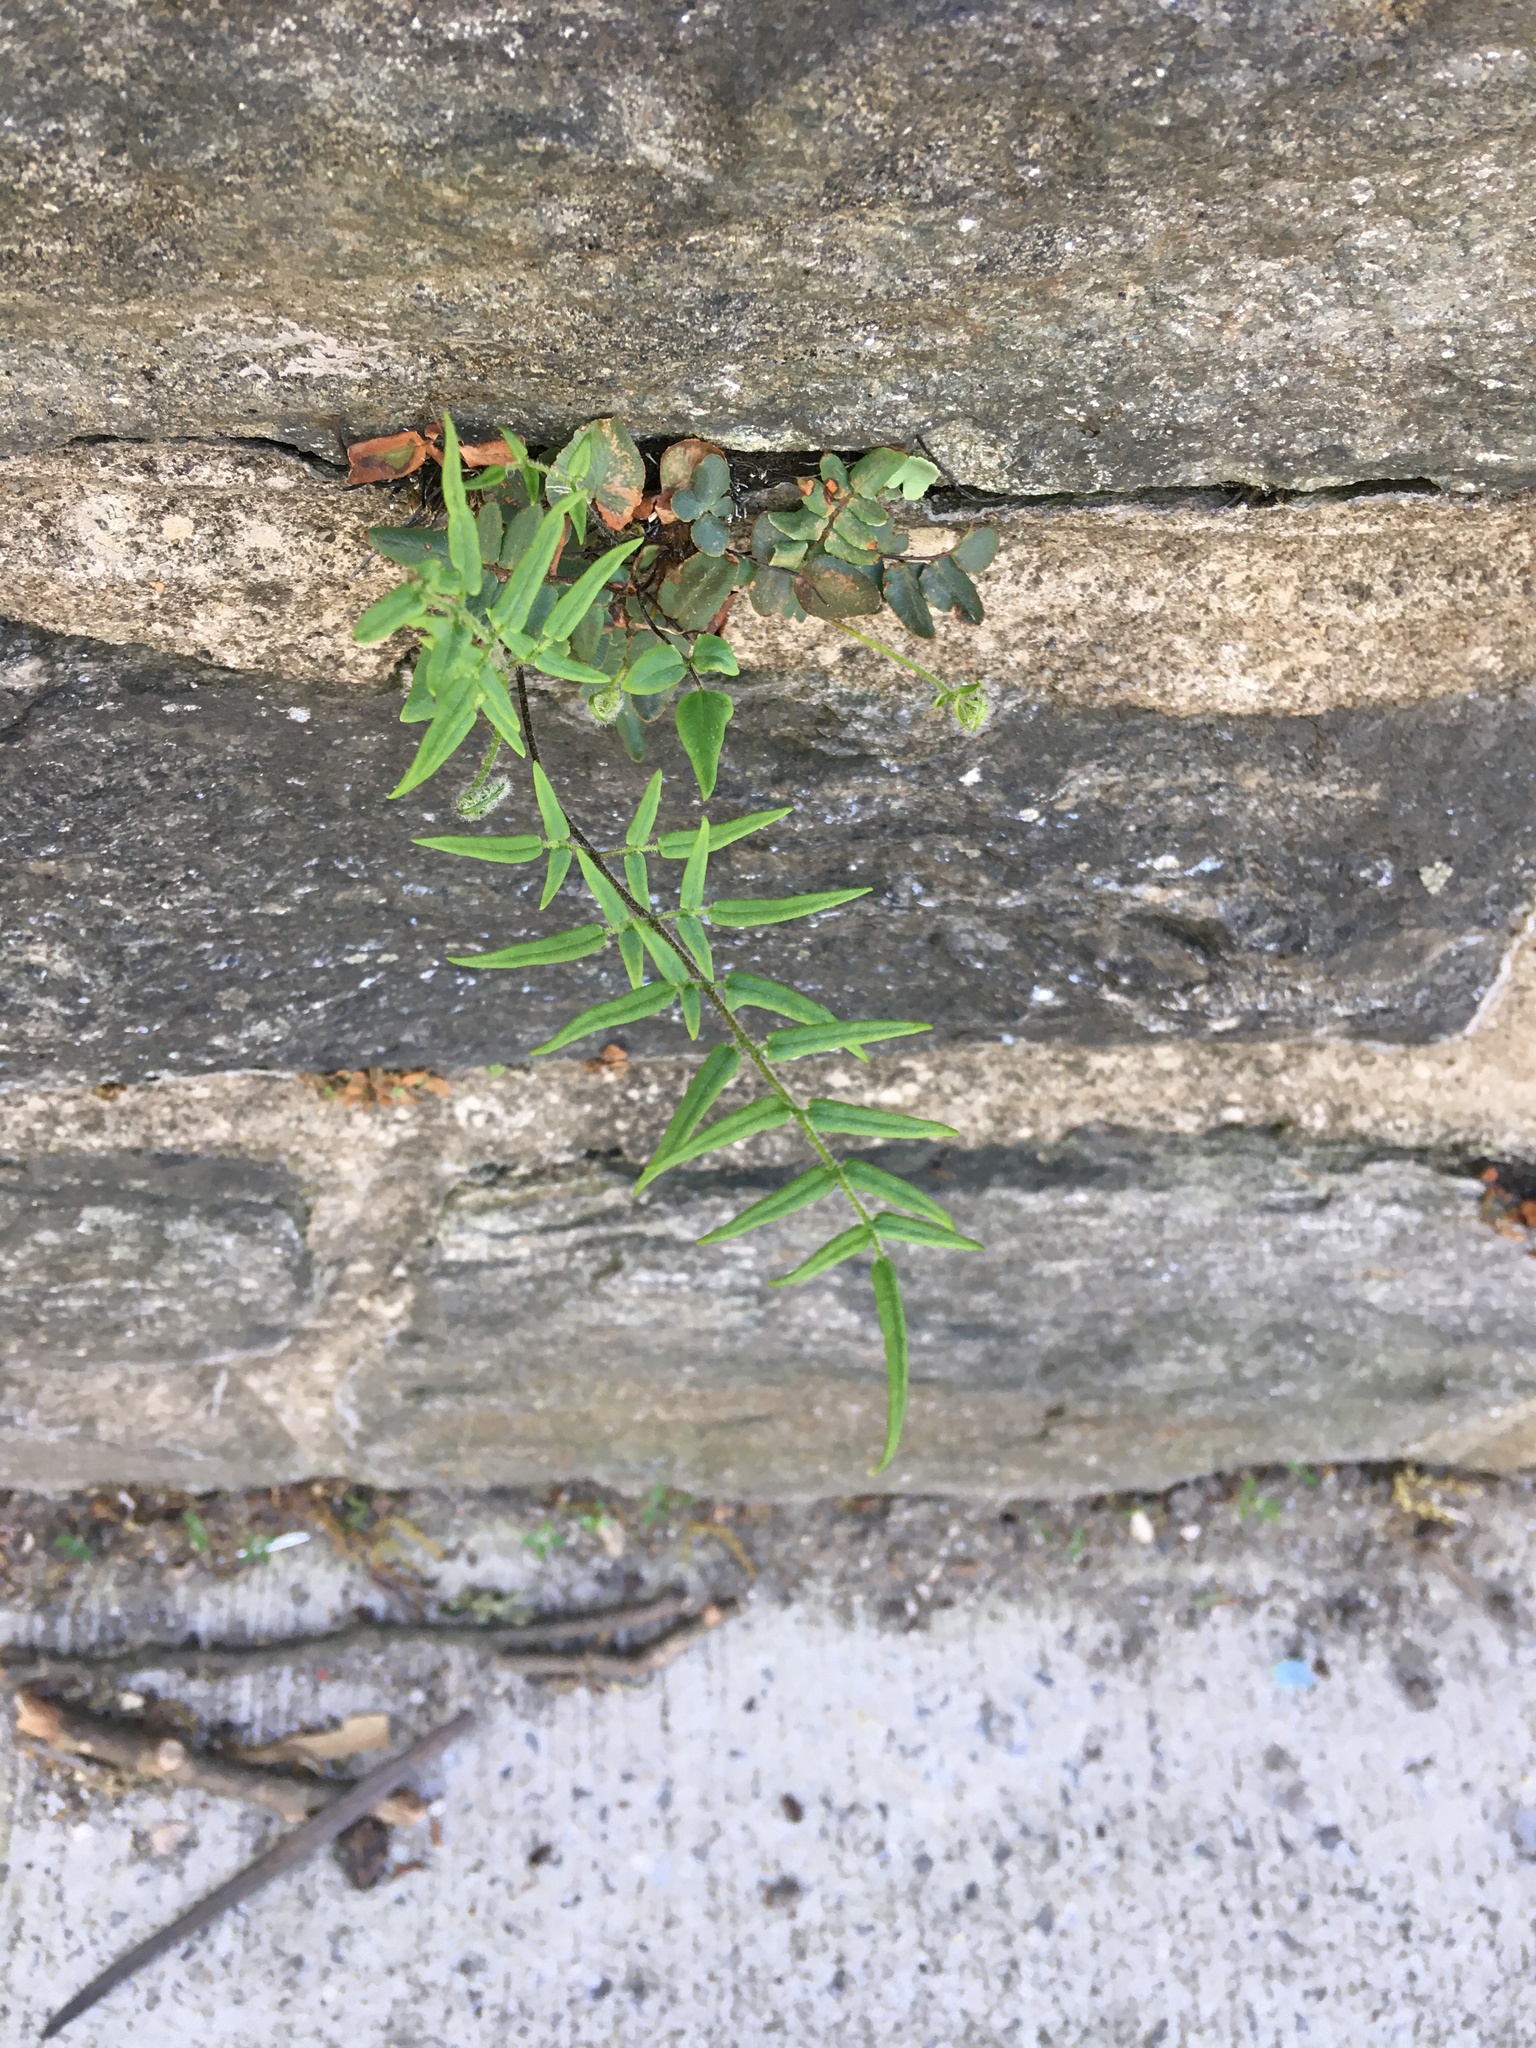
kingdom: Plantae
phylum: Tracheophyta
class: Polypodiopsida
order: Polypodiales
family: Pteridaceae
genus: Pellaea
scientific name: Pellaea atropurpurea
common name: Hairy cliffbrake
